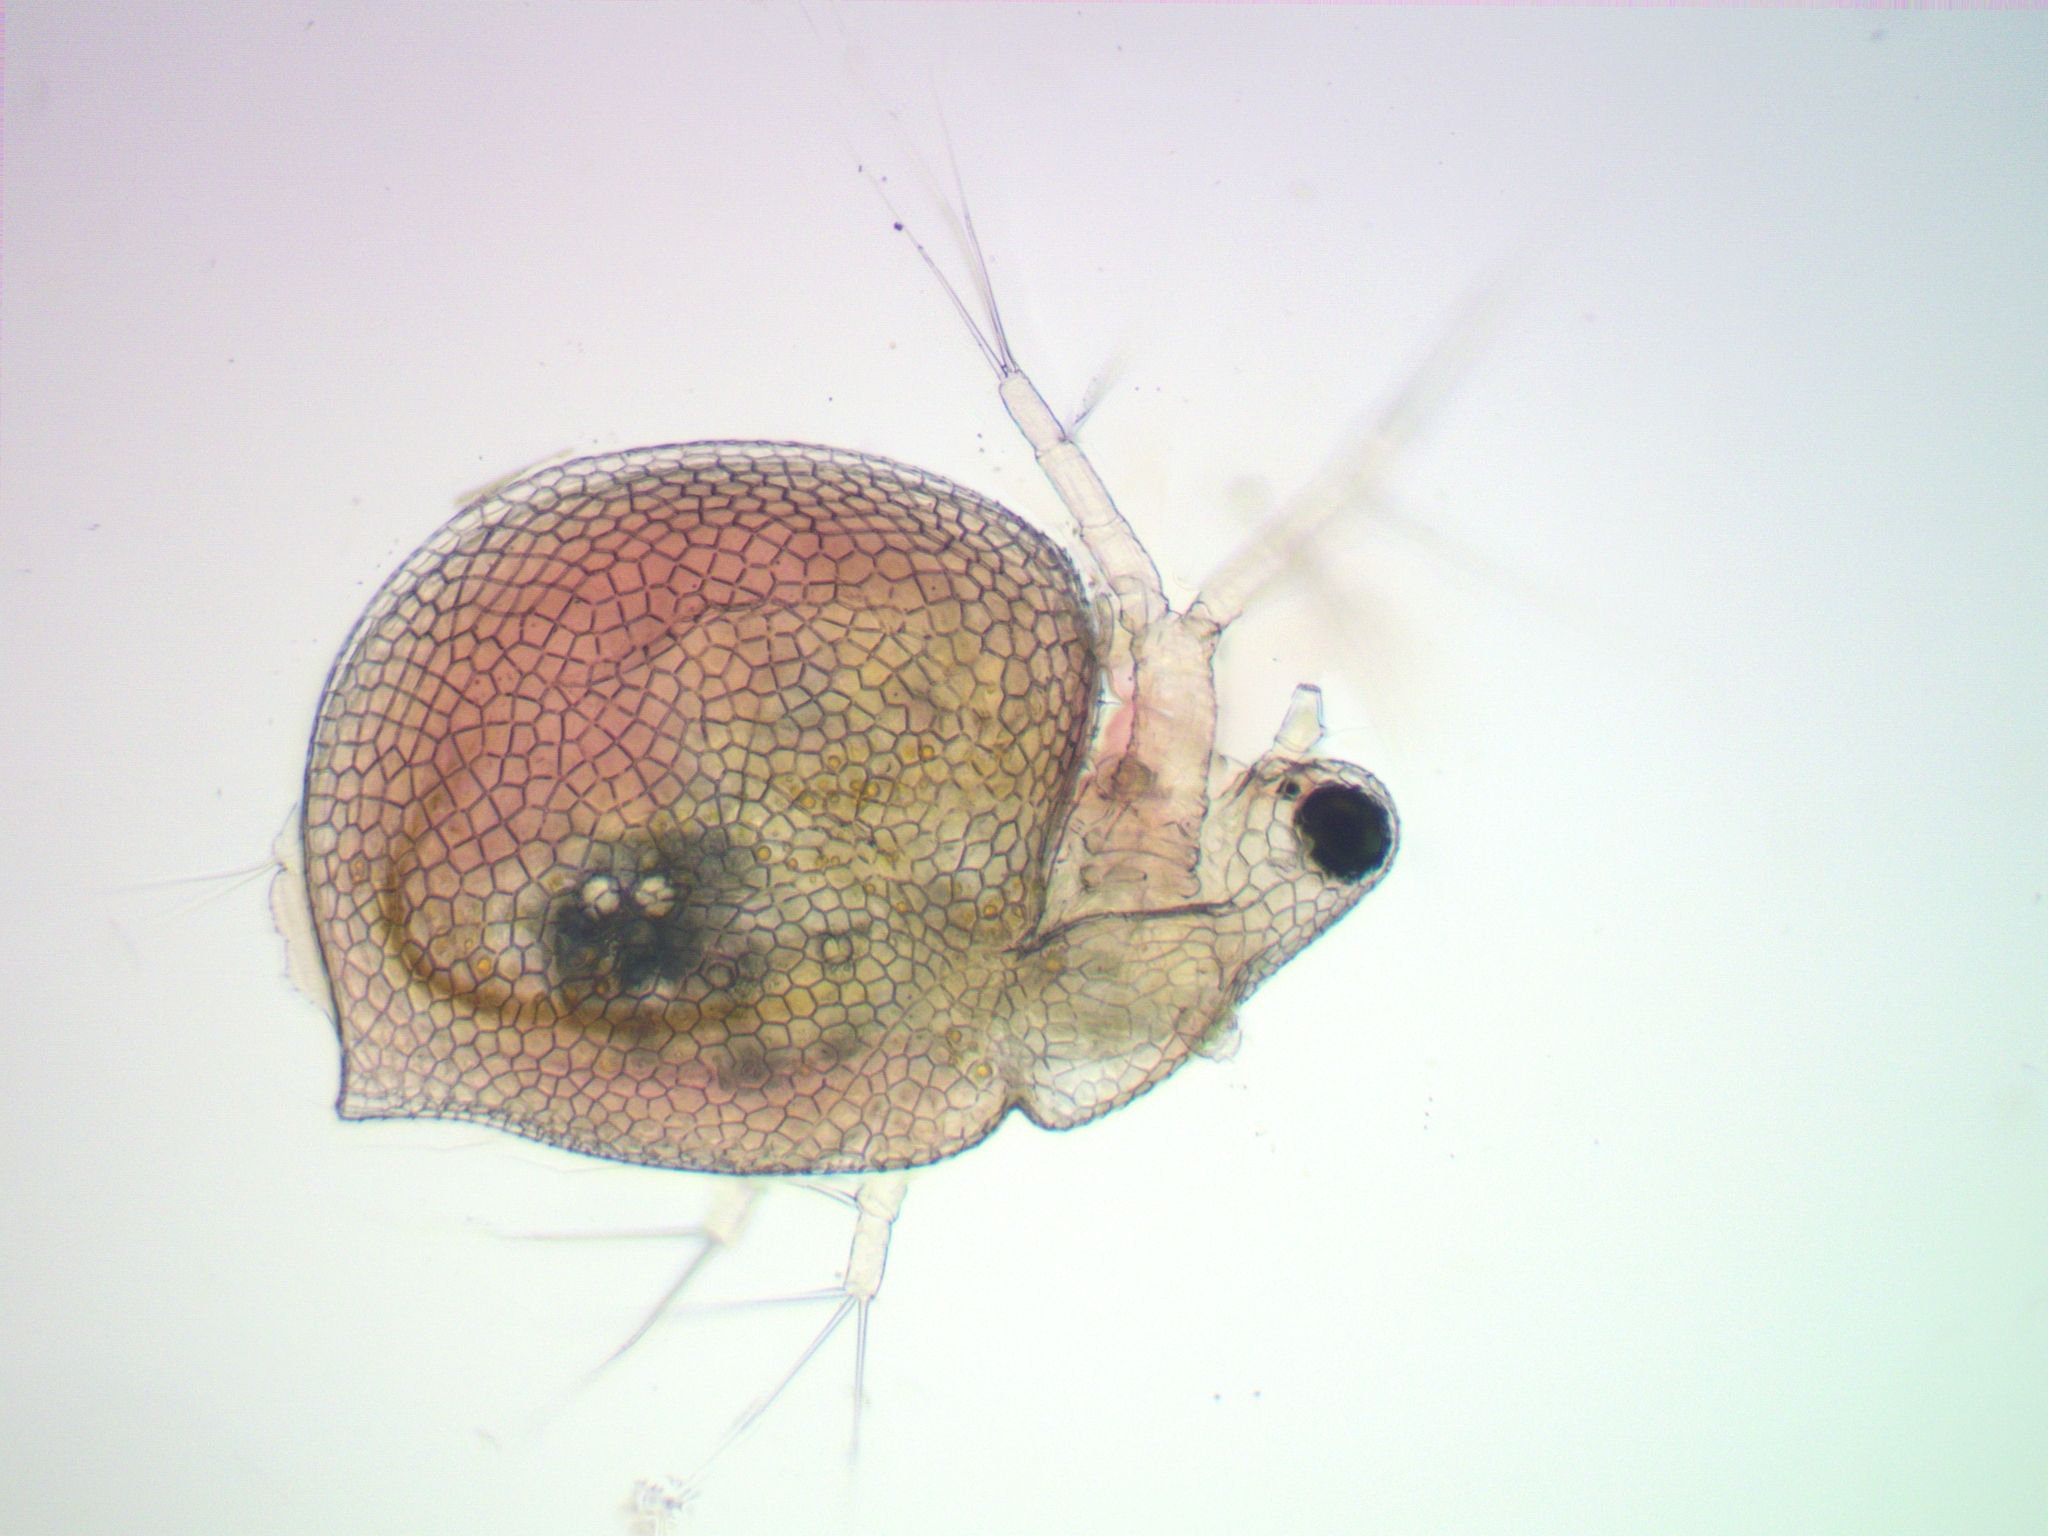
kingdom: Animalia
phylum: Arthropoda
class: Branchiopoda
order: Diplostraca
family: Daphniidae
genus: Ceriodaphnia
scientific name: Ceriodaphnia laticaudata
